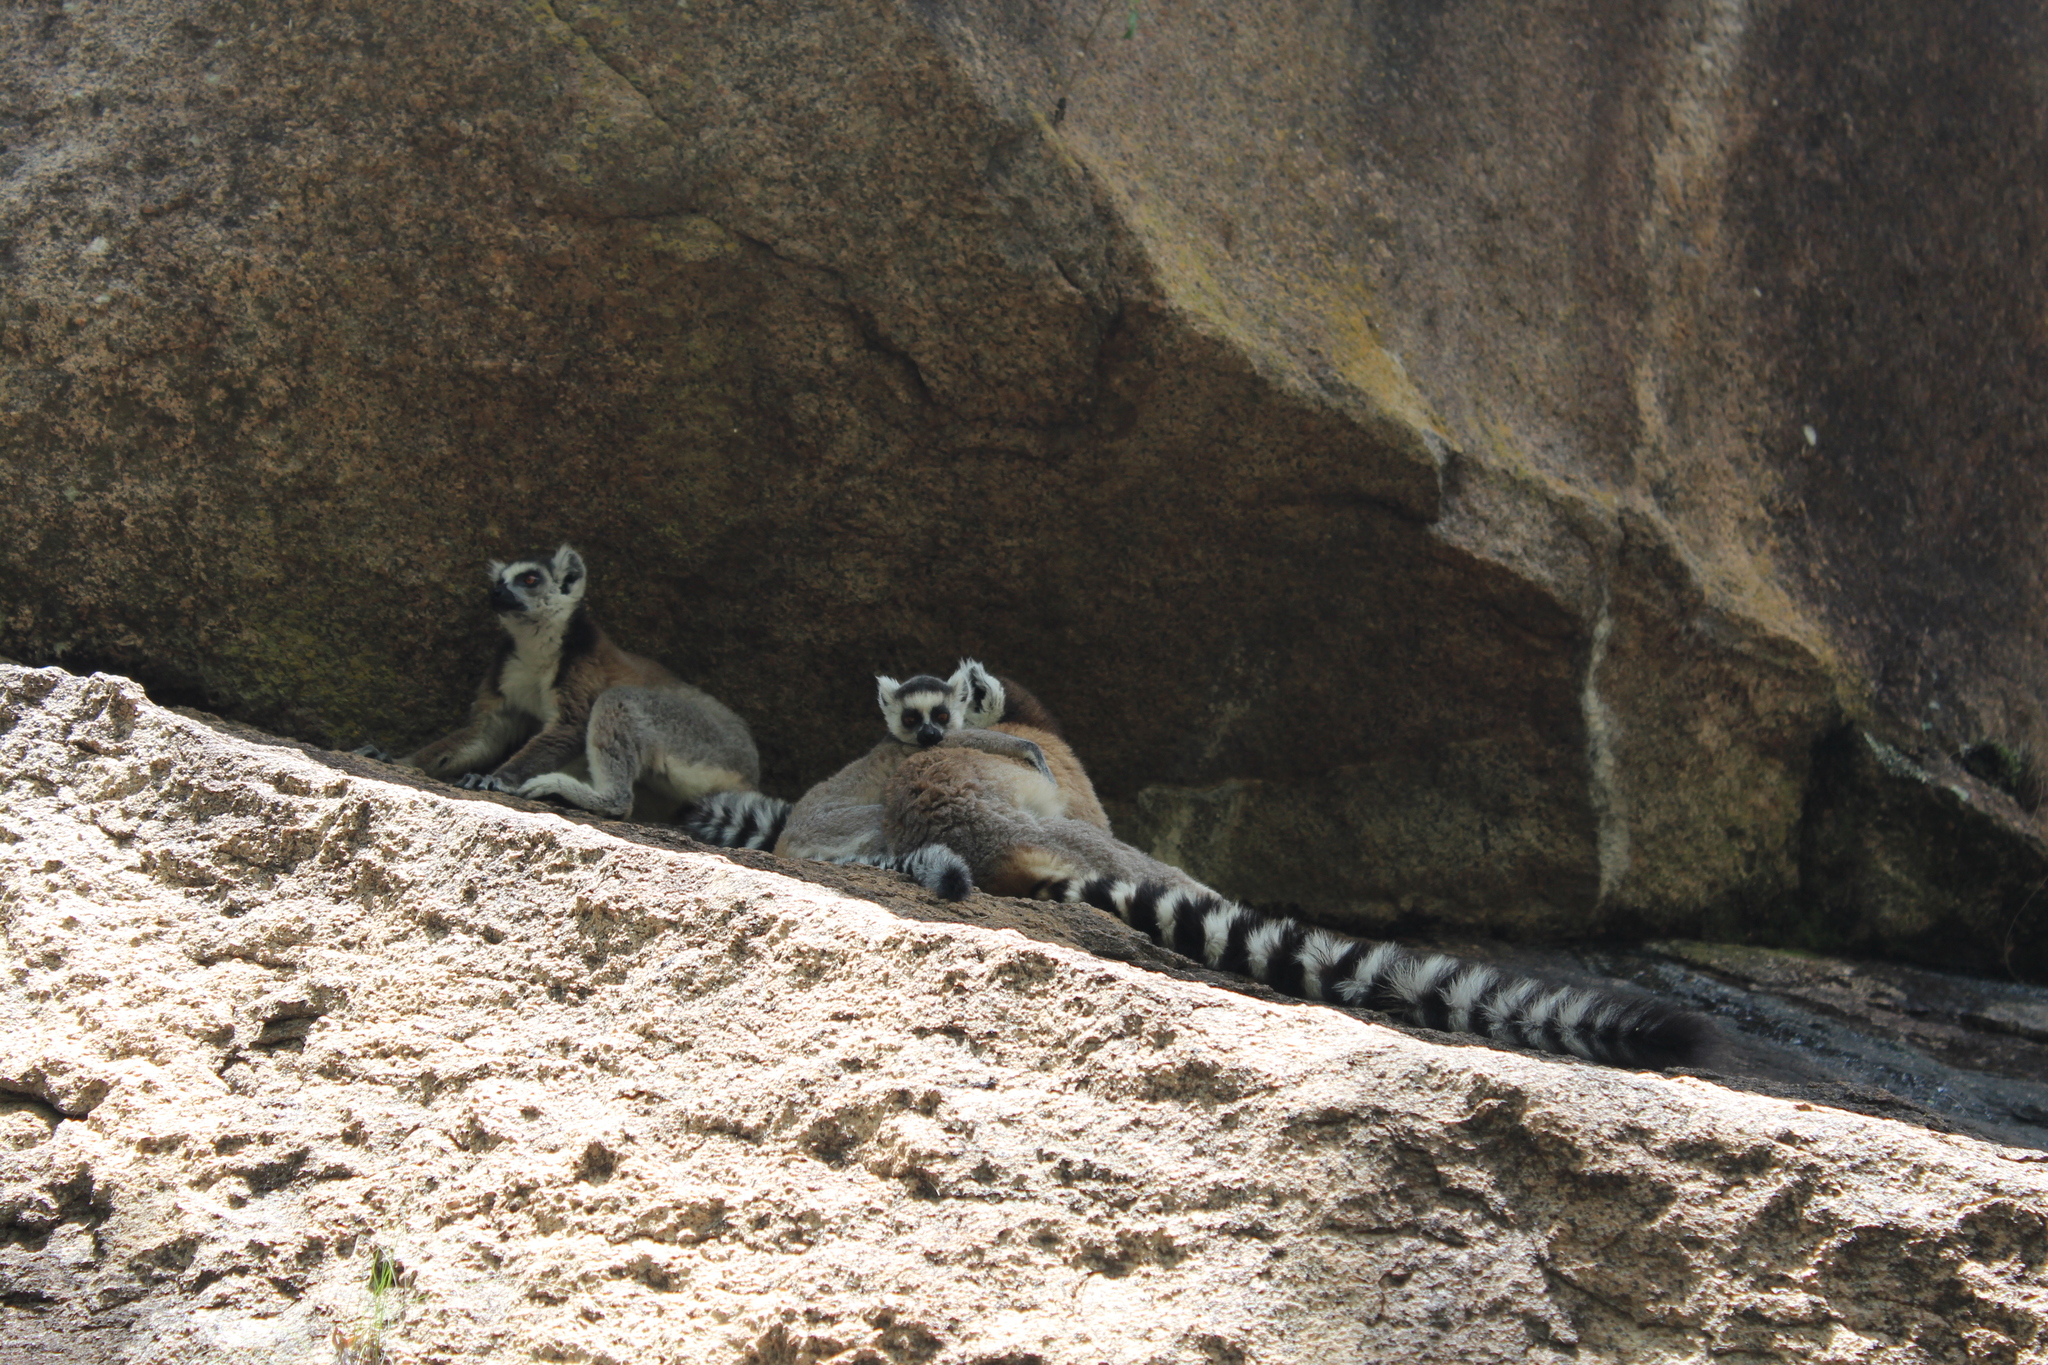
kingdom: Animalia
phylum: Chordata
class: Mammalia
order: Primates
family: Lemuridae
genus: Lemur
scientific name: Lemur catta
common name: Ring-tailed lemur
